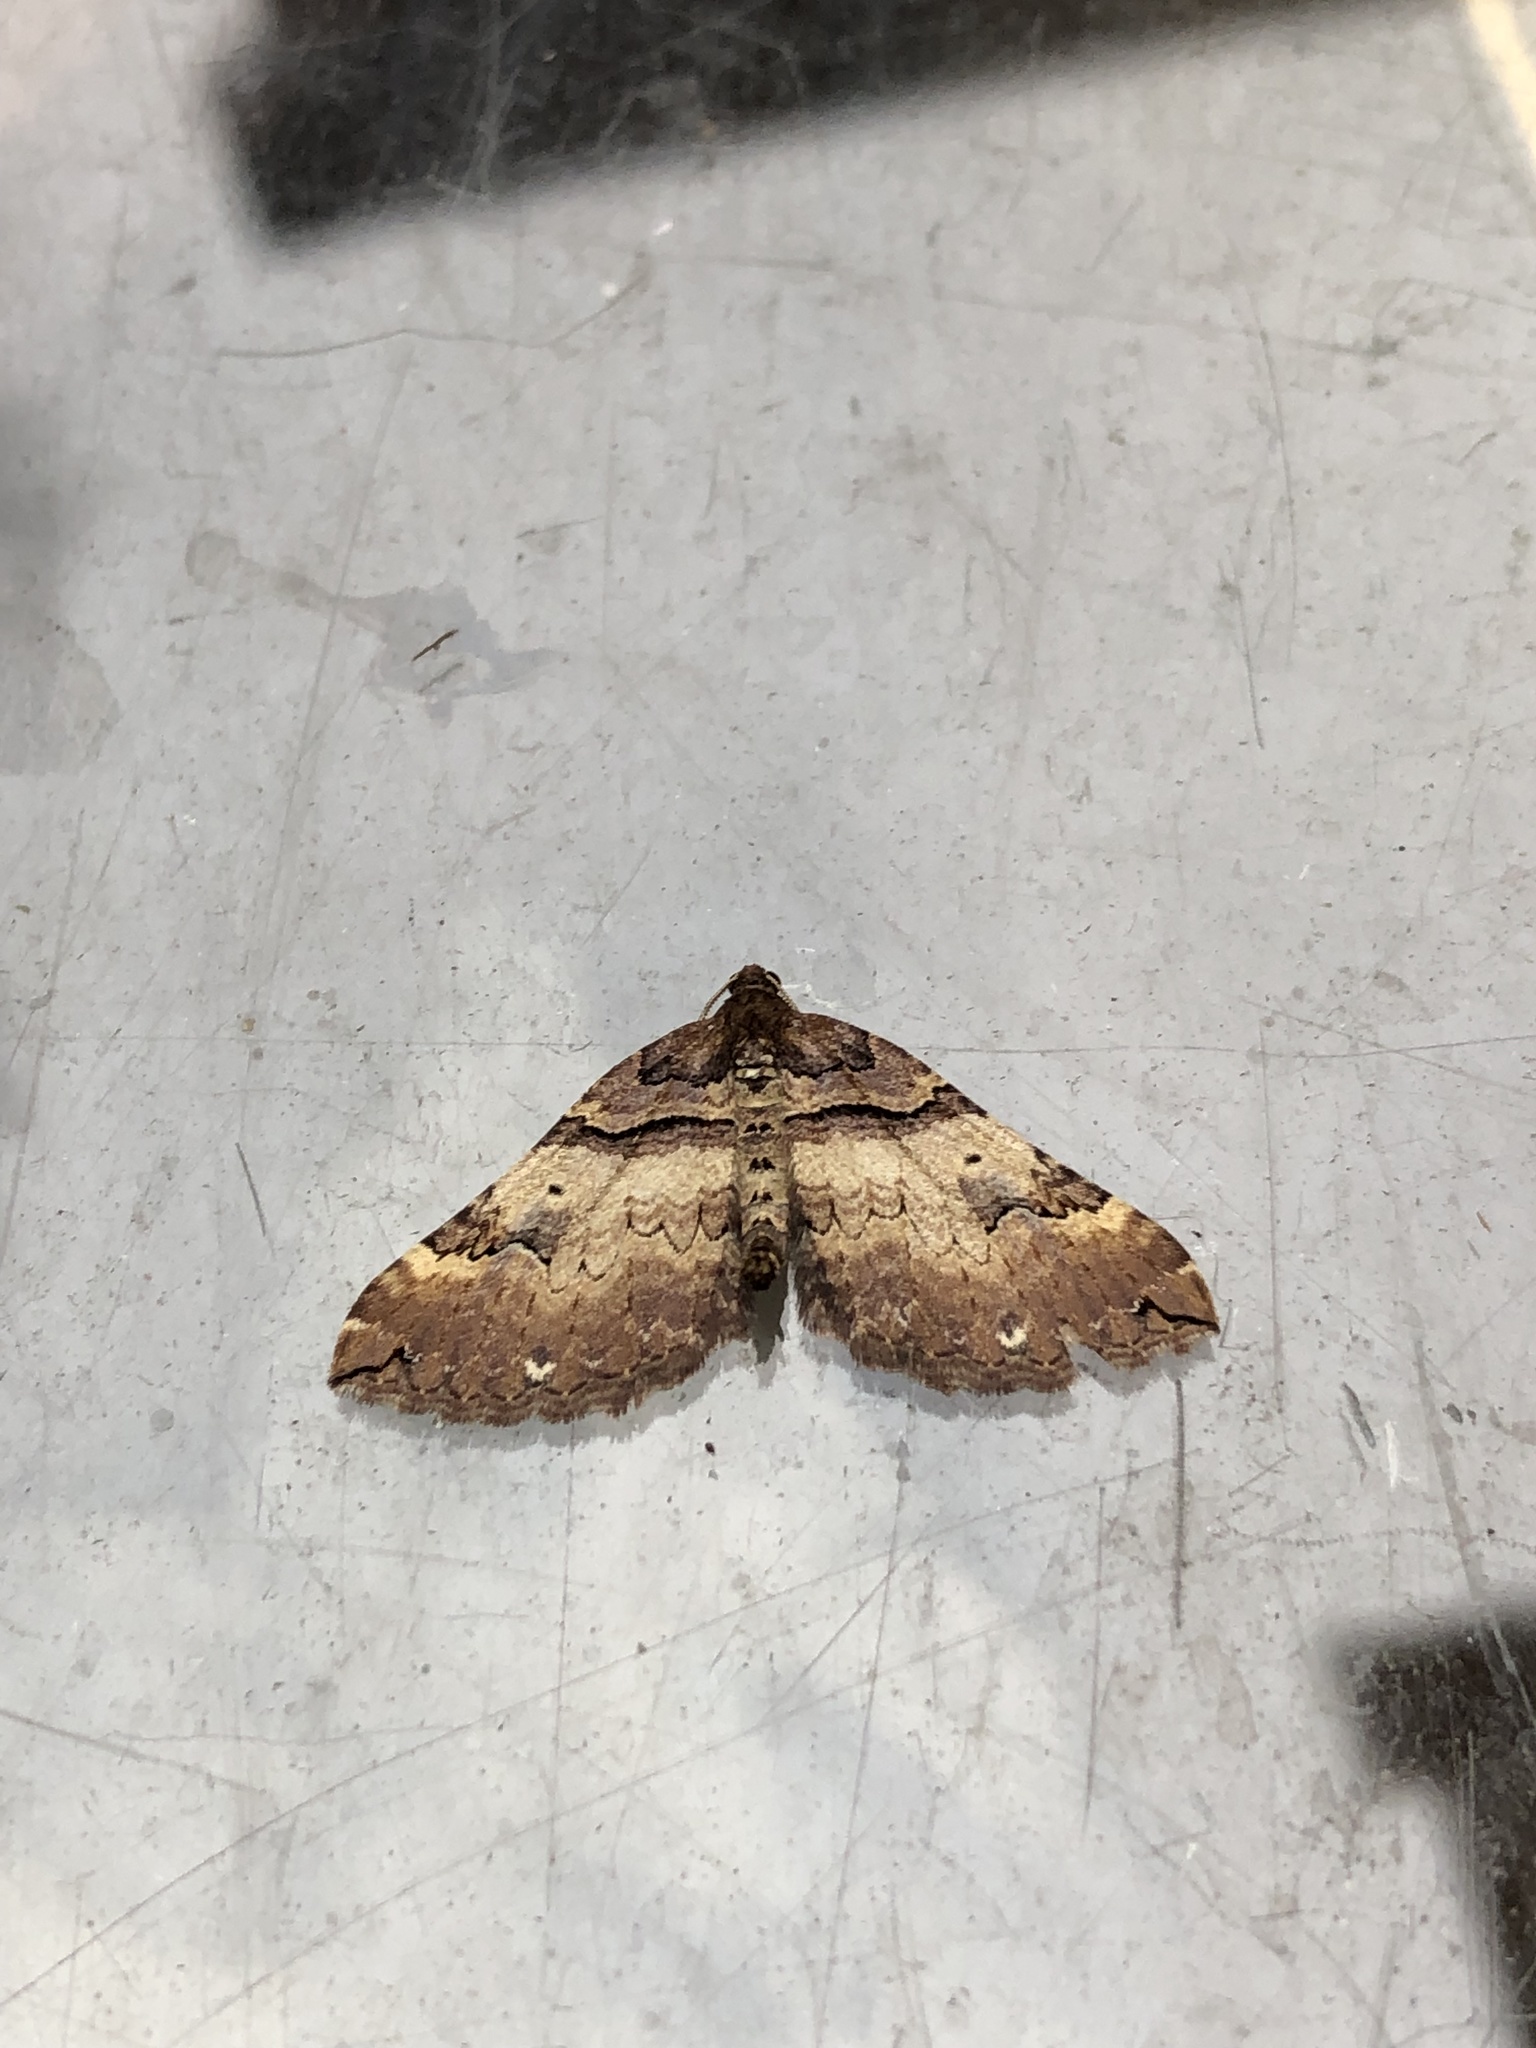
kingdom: Animalia
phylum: Arthropoda
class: Insecta
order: Lepidoptera
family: Geometridae
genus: Anticlea
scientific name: Anticlea badiata
